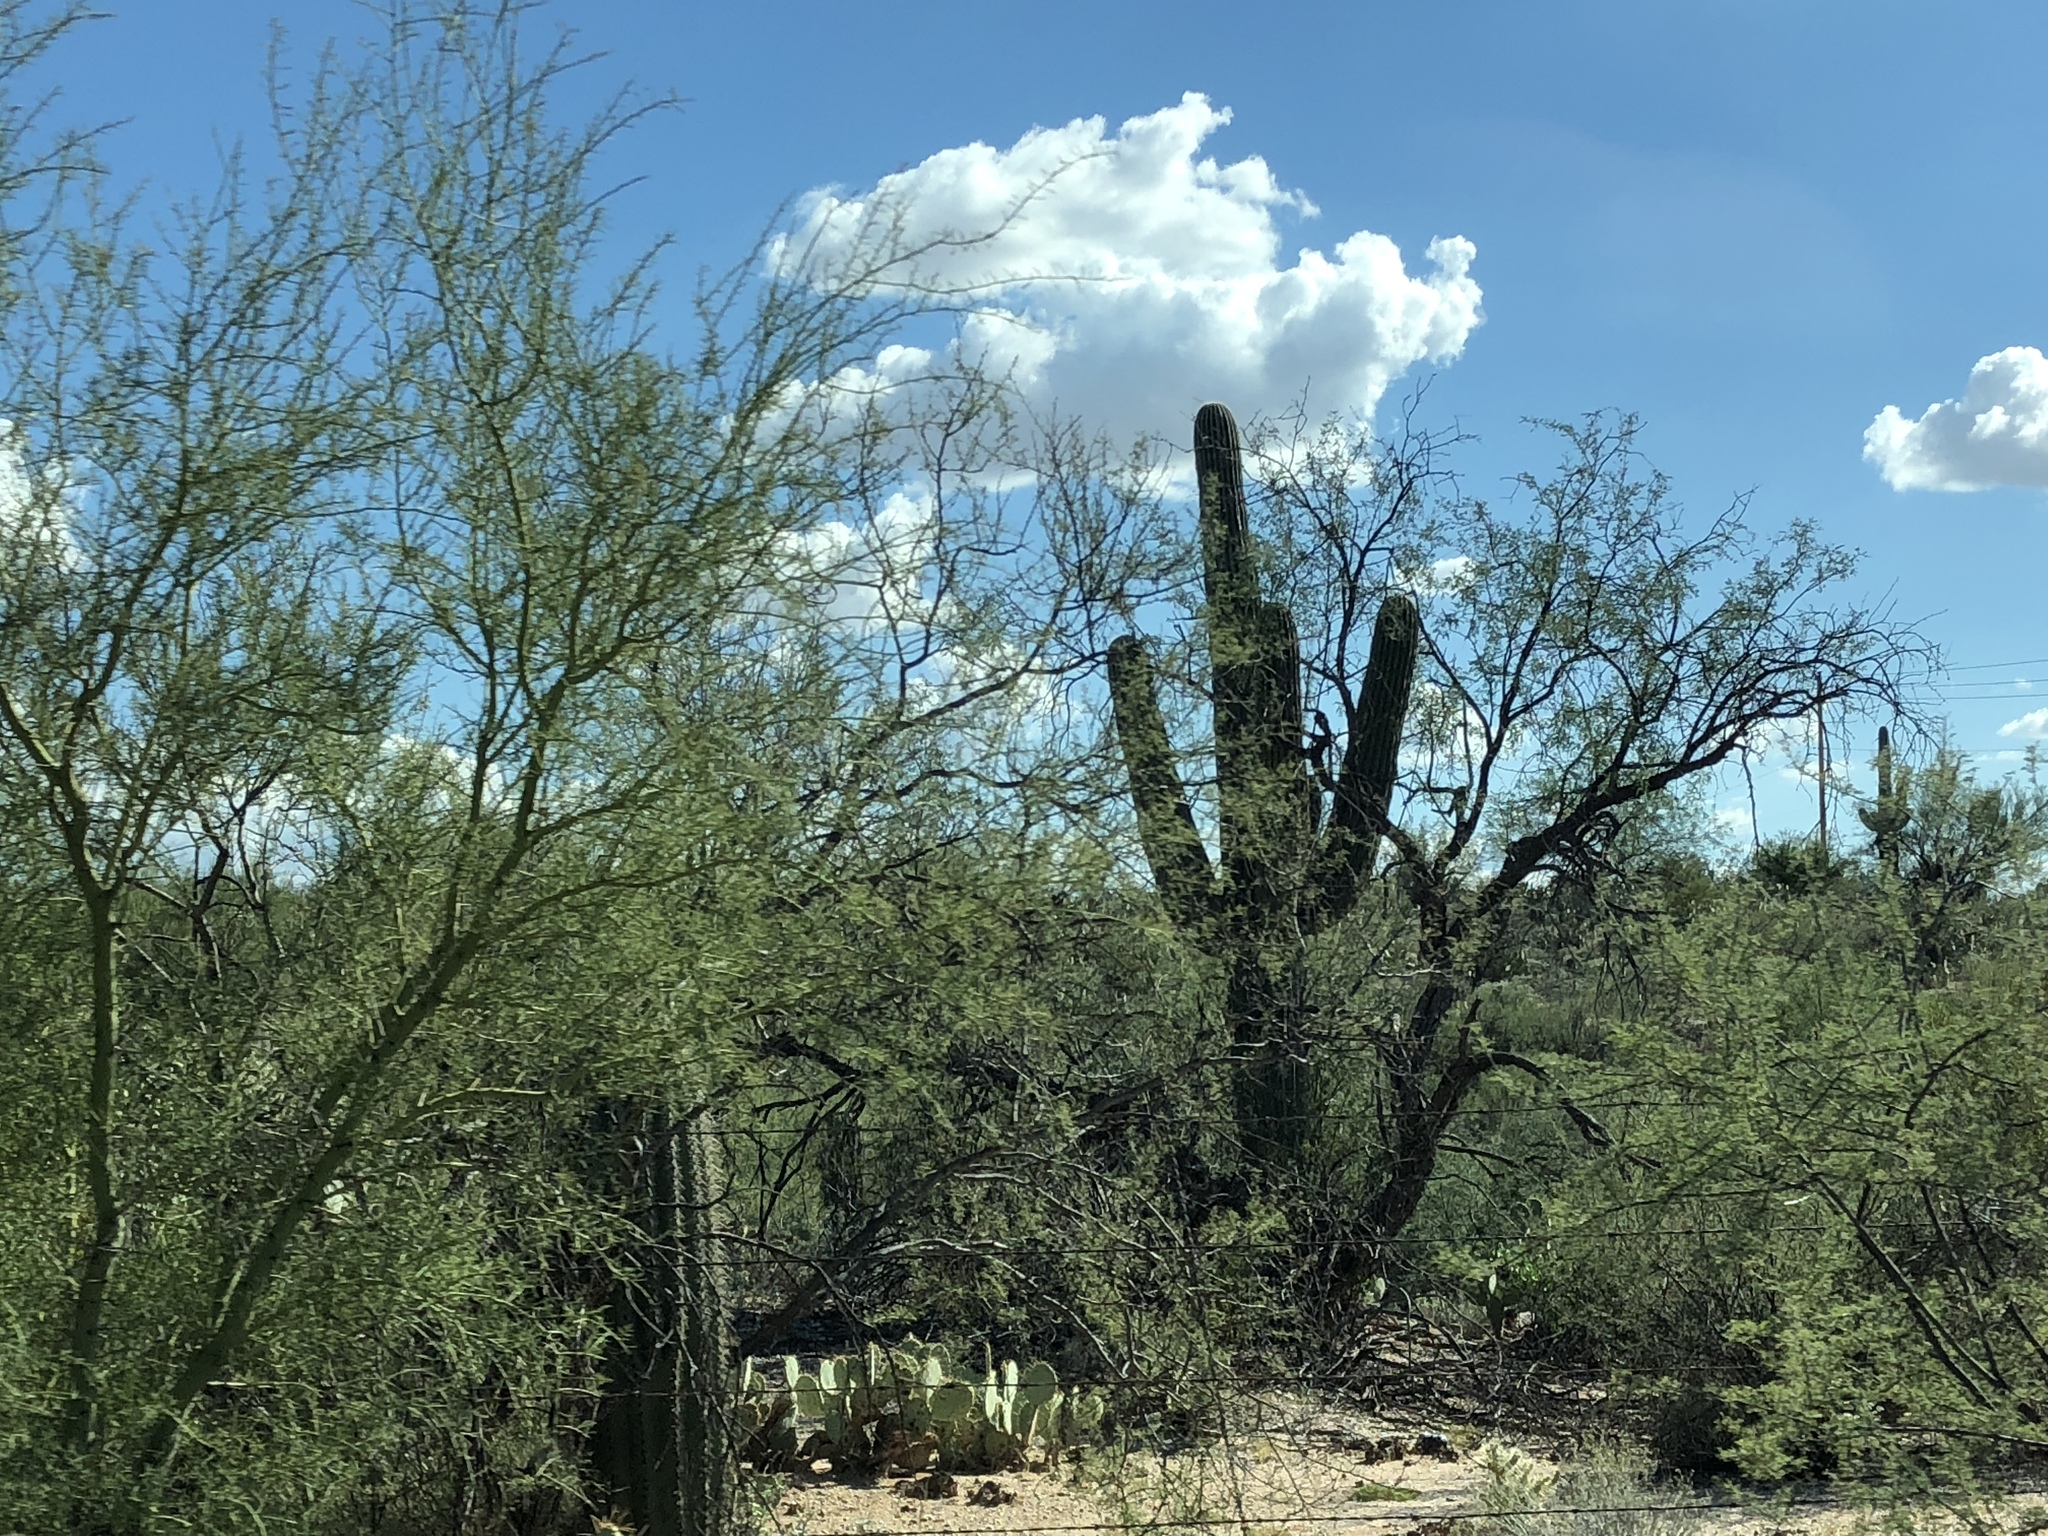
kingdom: Plantae
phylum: Tracheophyta
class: Magnoliopsida
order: Caryophyllales
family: Cactaceae
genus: Carnegiea
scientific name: Carnegiea gigantea
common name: Saguaro
